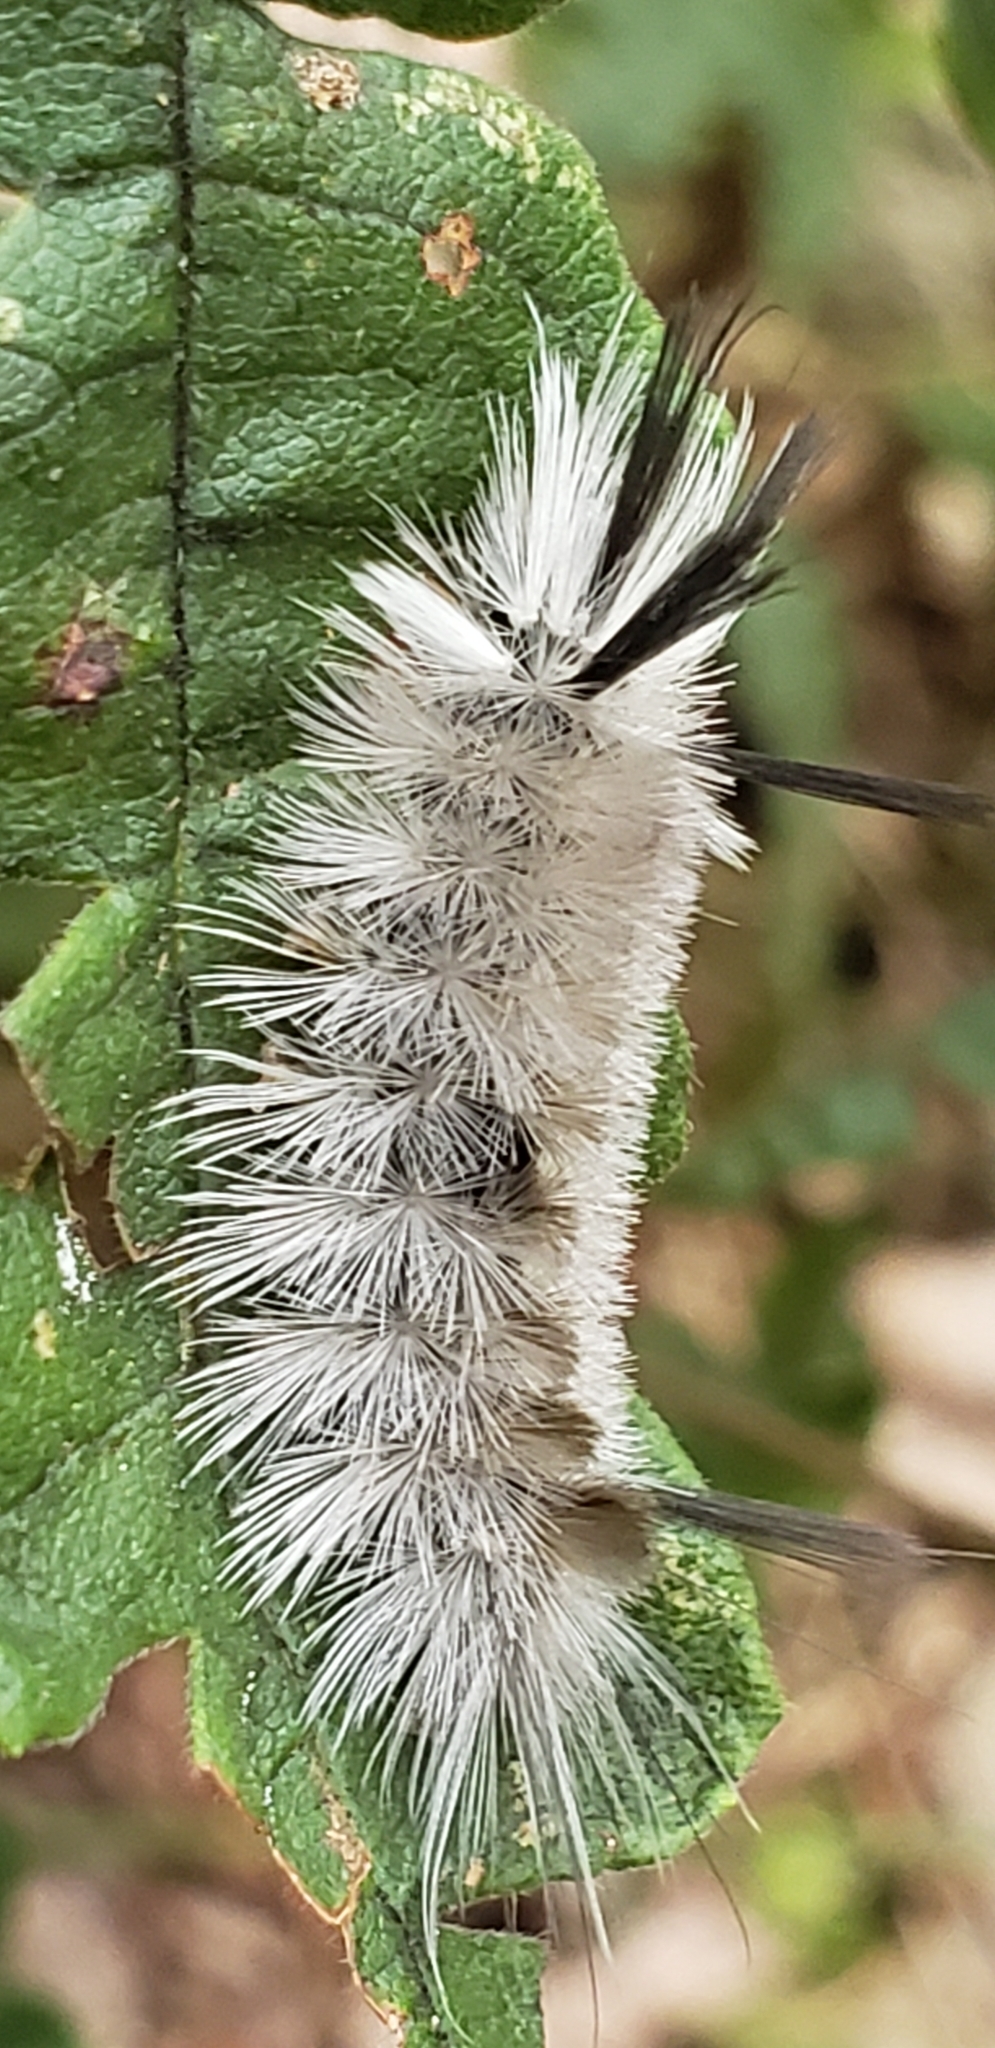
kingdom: Animalia
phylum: Arthropoda
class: Insecta
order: Lepidoptera
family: Erebidae
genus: Halysidota
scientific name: Halysidota tessellaris
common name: Banded tussock moth
